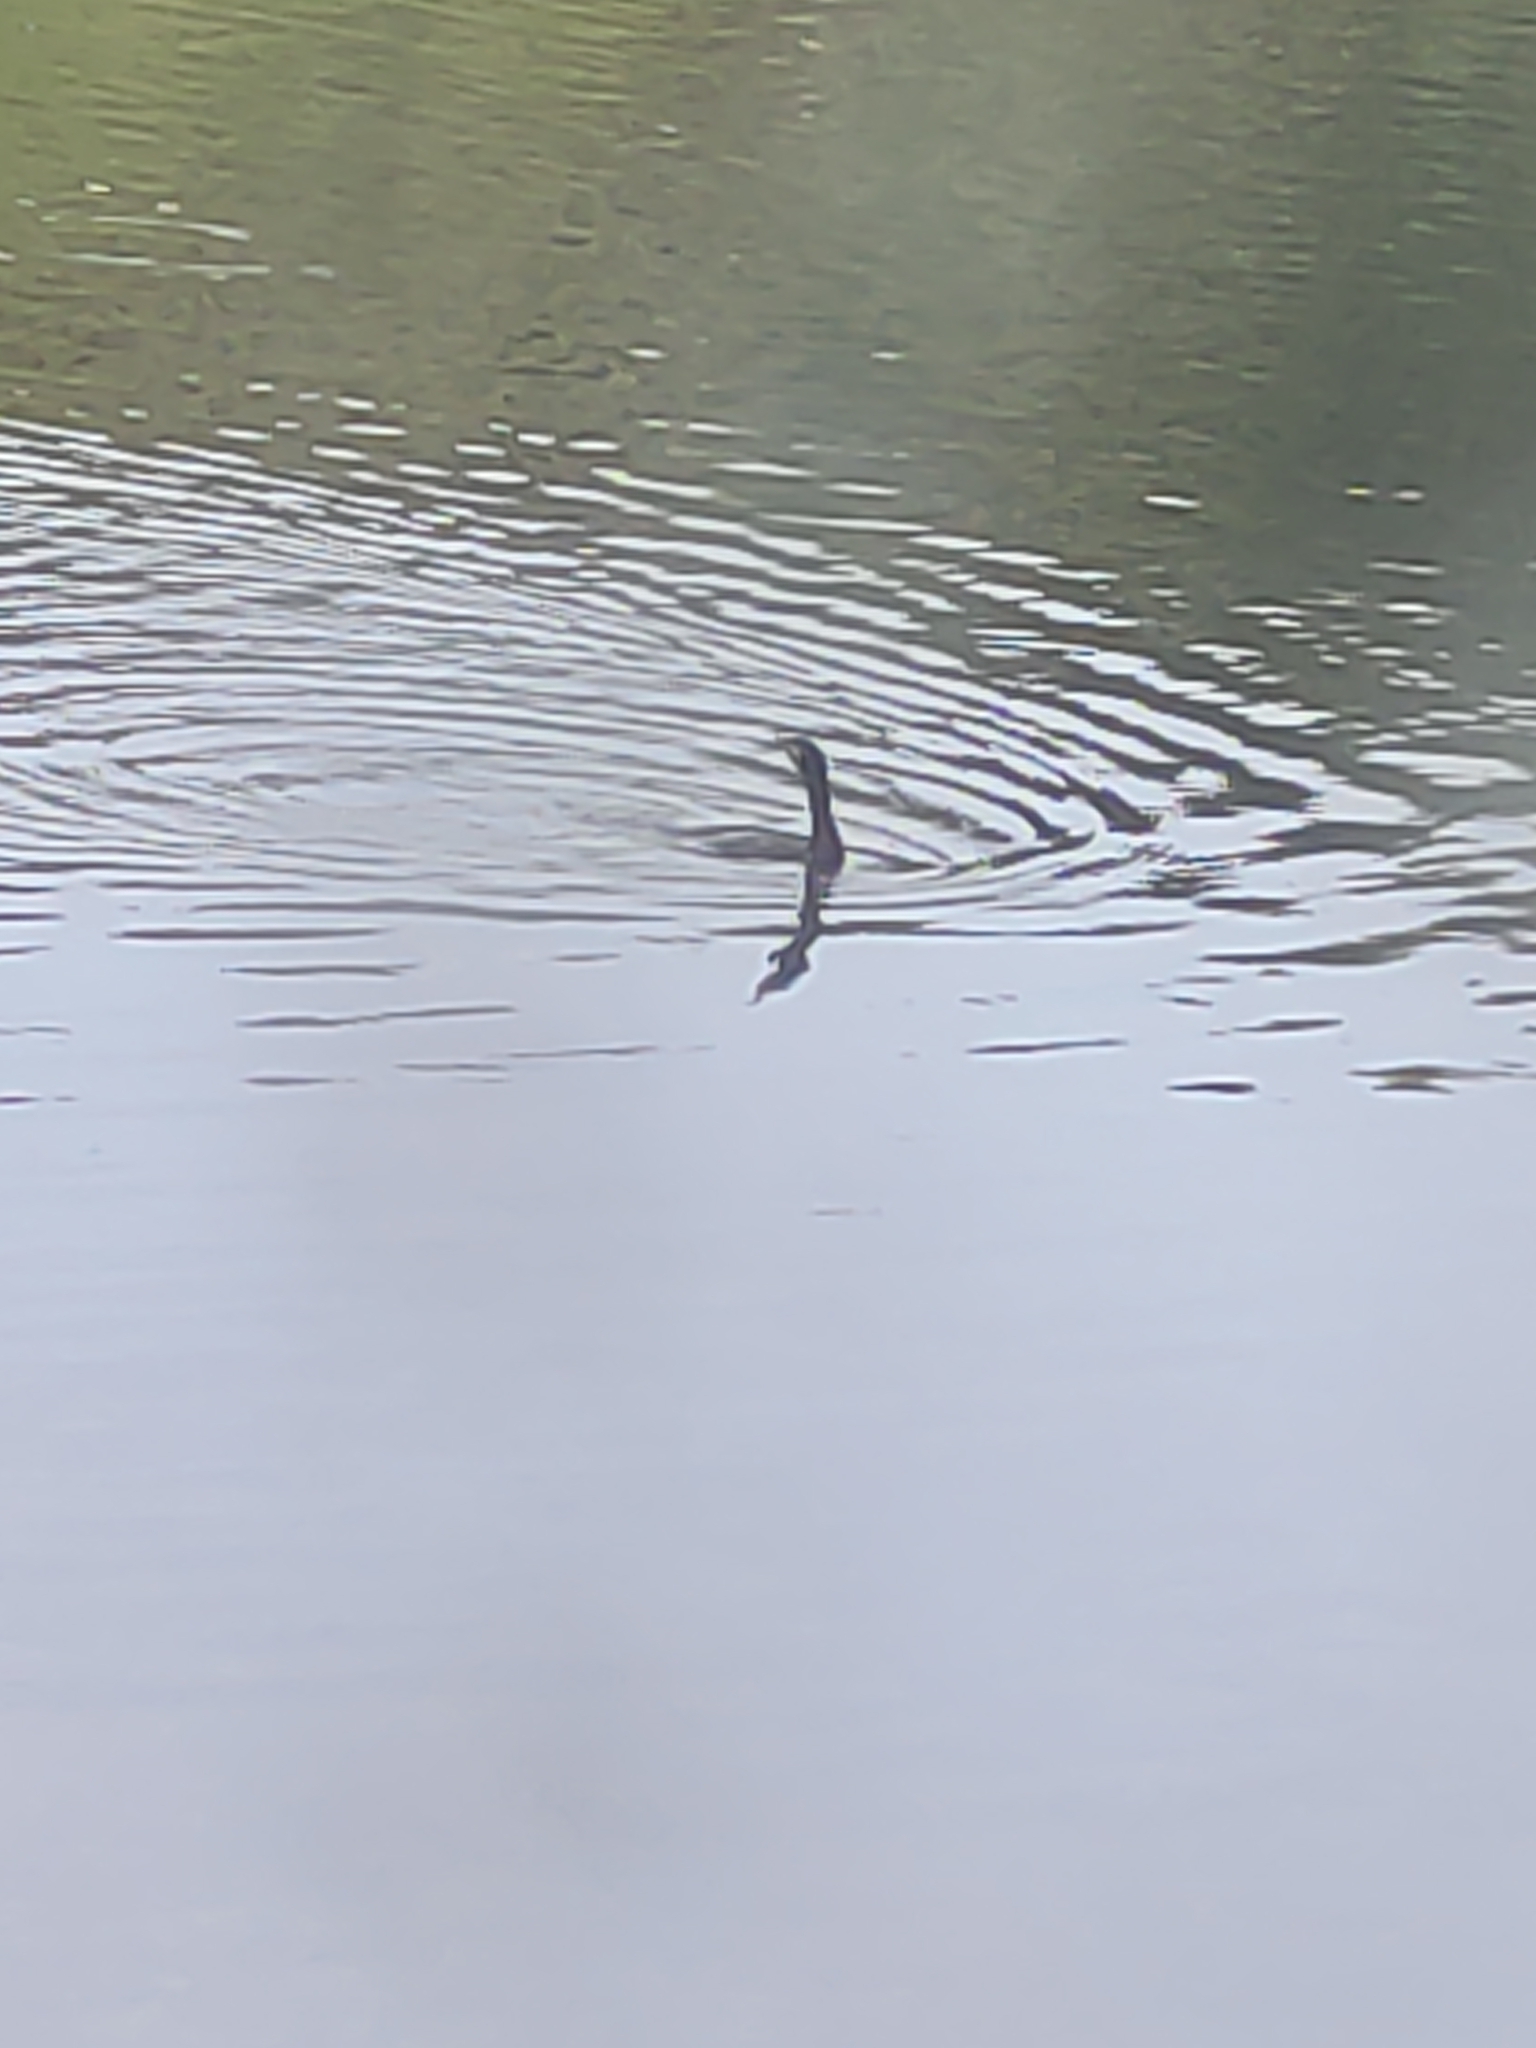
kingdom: Animalia
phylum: Chordata
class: Aves
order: Suliformes
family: Phalacrocoracidae
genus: Phalacrocorax
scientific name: Phalacrocorax carbo
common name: Great cormorant
